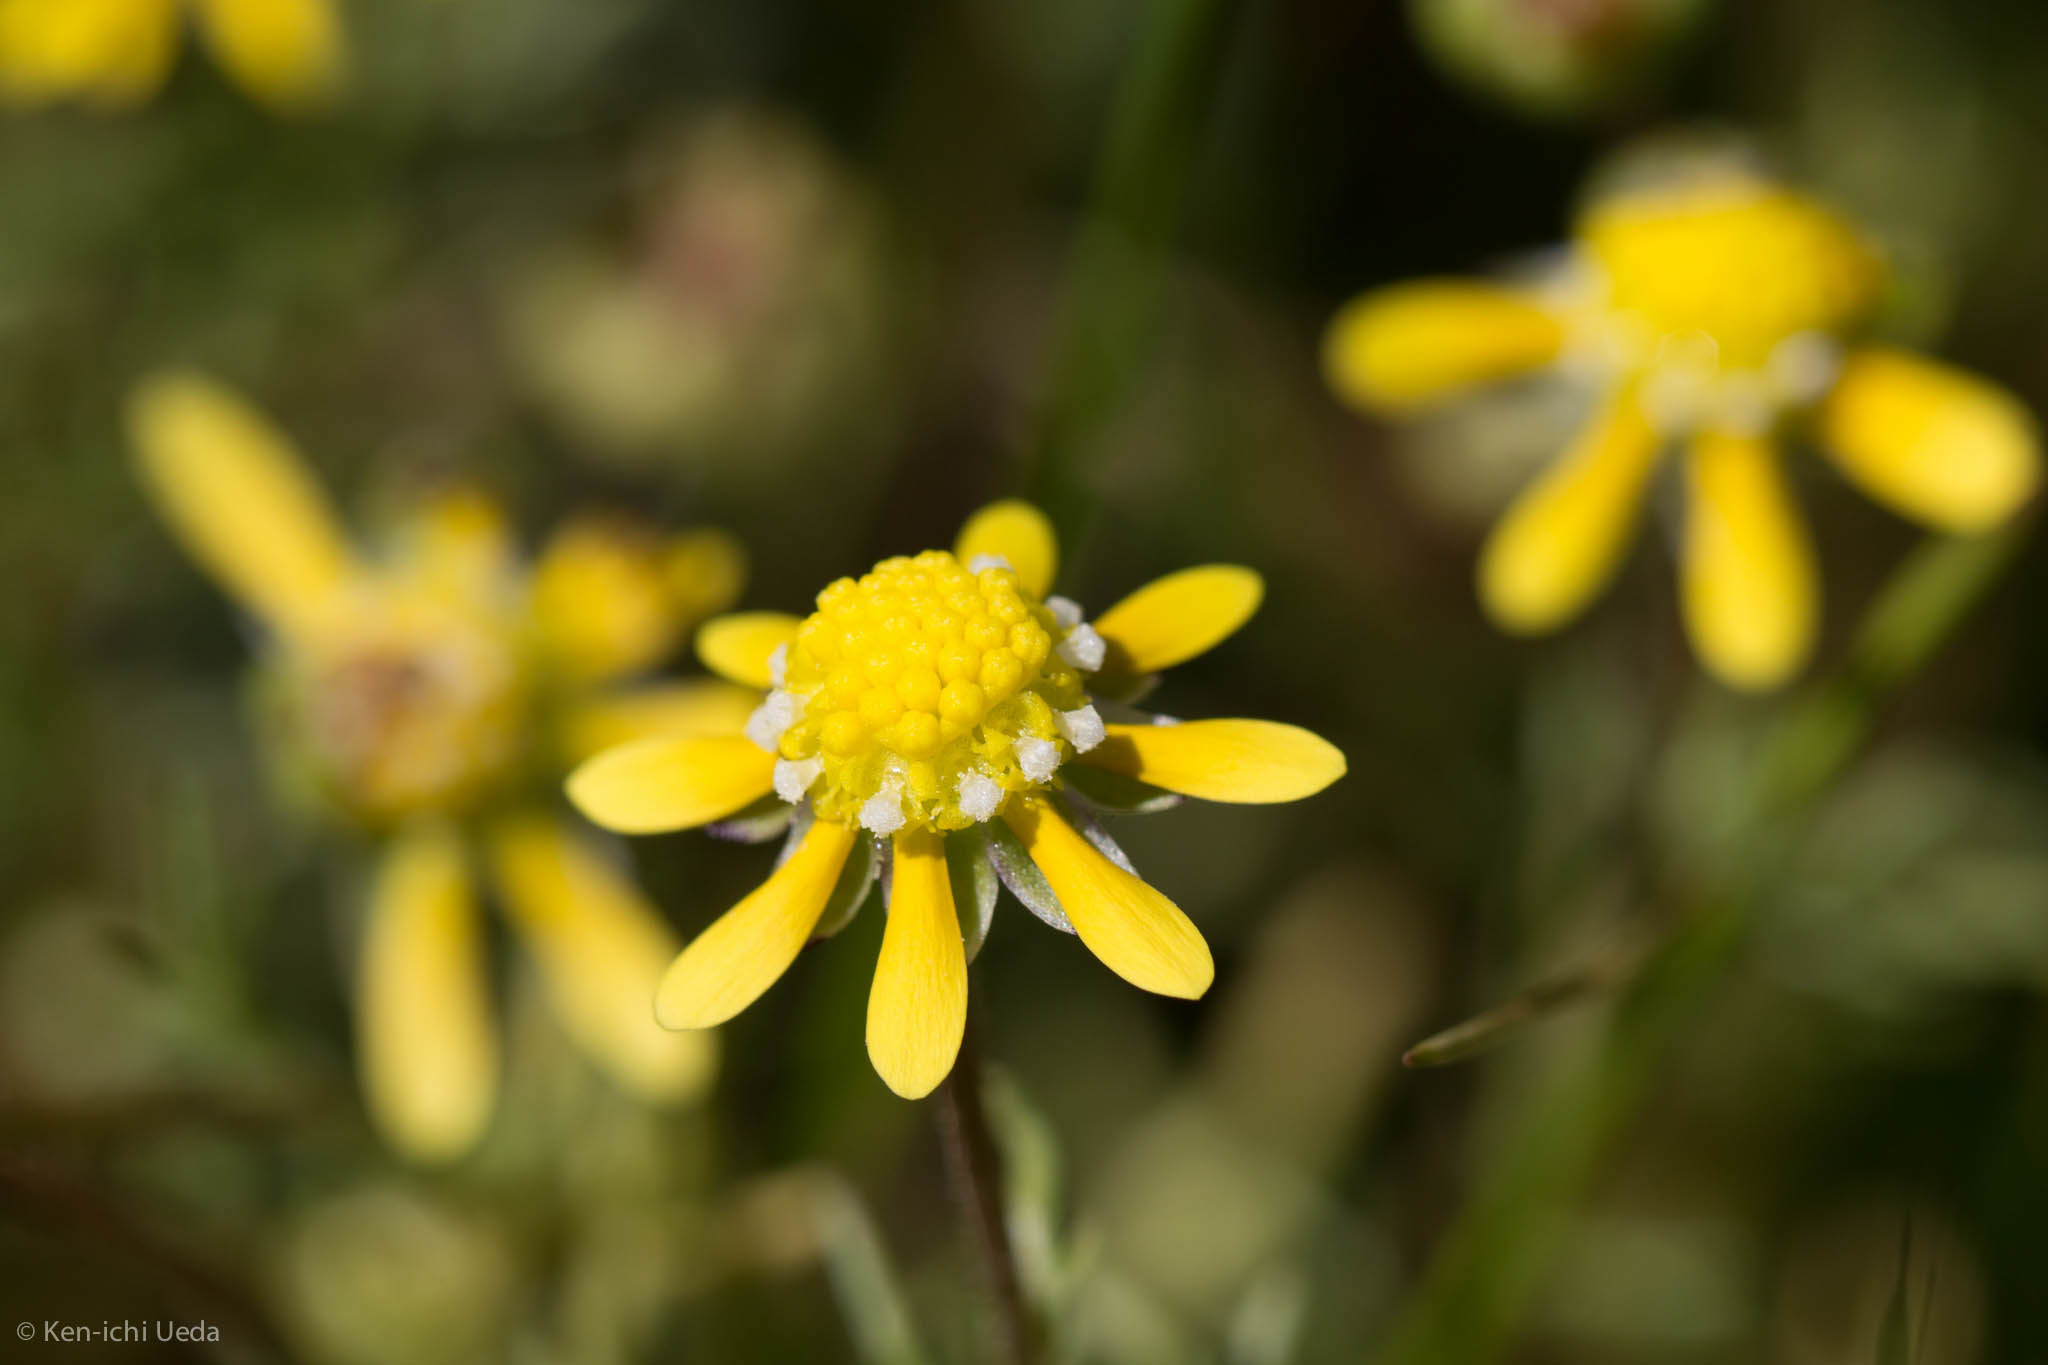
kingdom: Plantae
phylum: Tracheophyta
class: Magnoliopsida
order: Asterales
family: Asteraceae
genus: Blennosperma
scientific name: Blennosperma nanum
